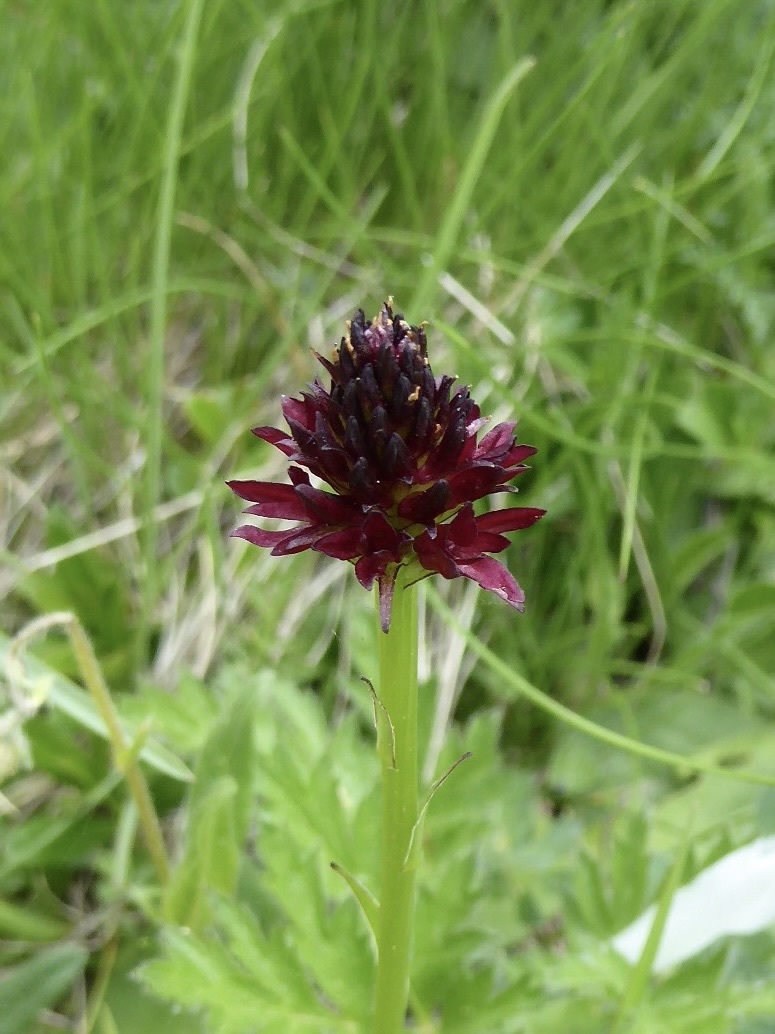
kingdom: Plantae
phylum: Tracheophyta
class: Liliopsida
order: Asparagales
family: Orchidaceae
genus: Gymnadenia
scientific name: Gymnadenia austriaca
